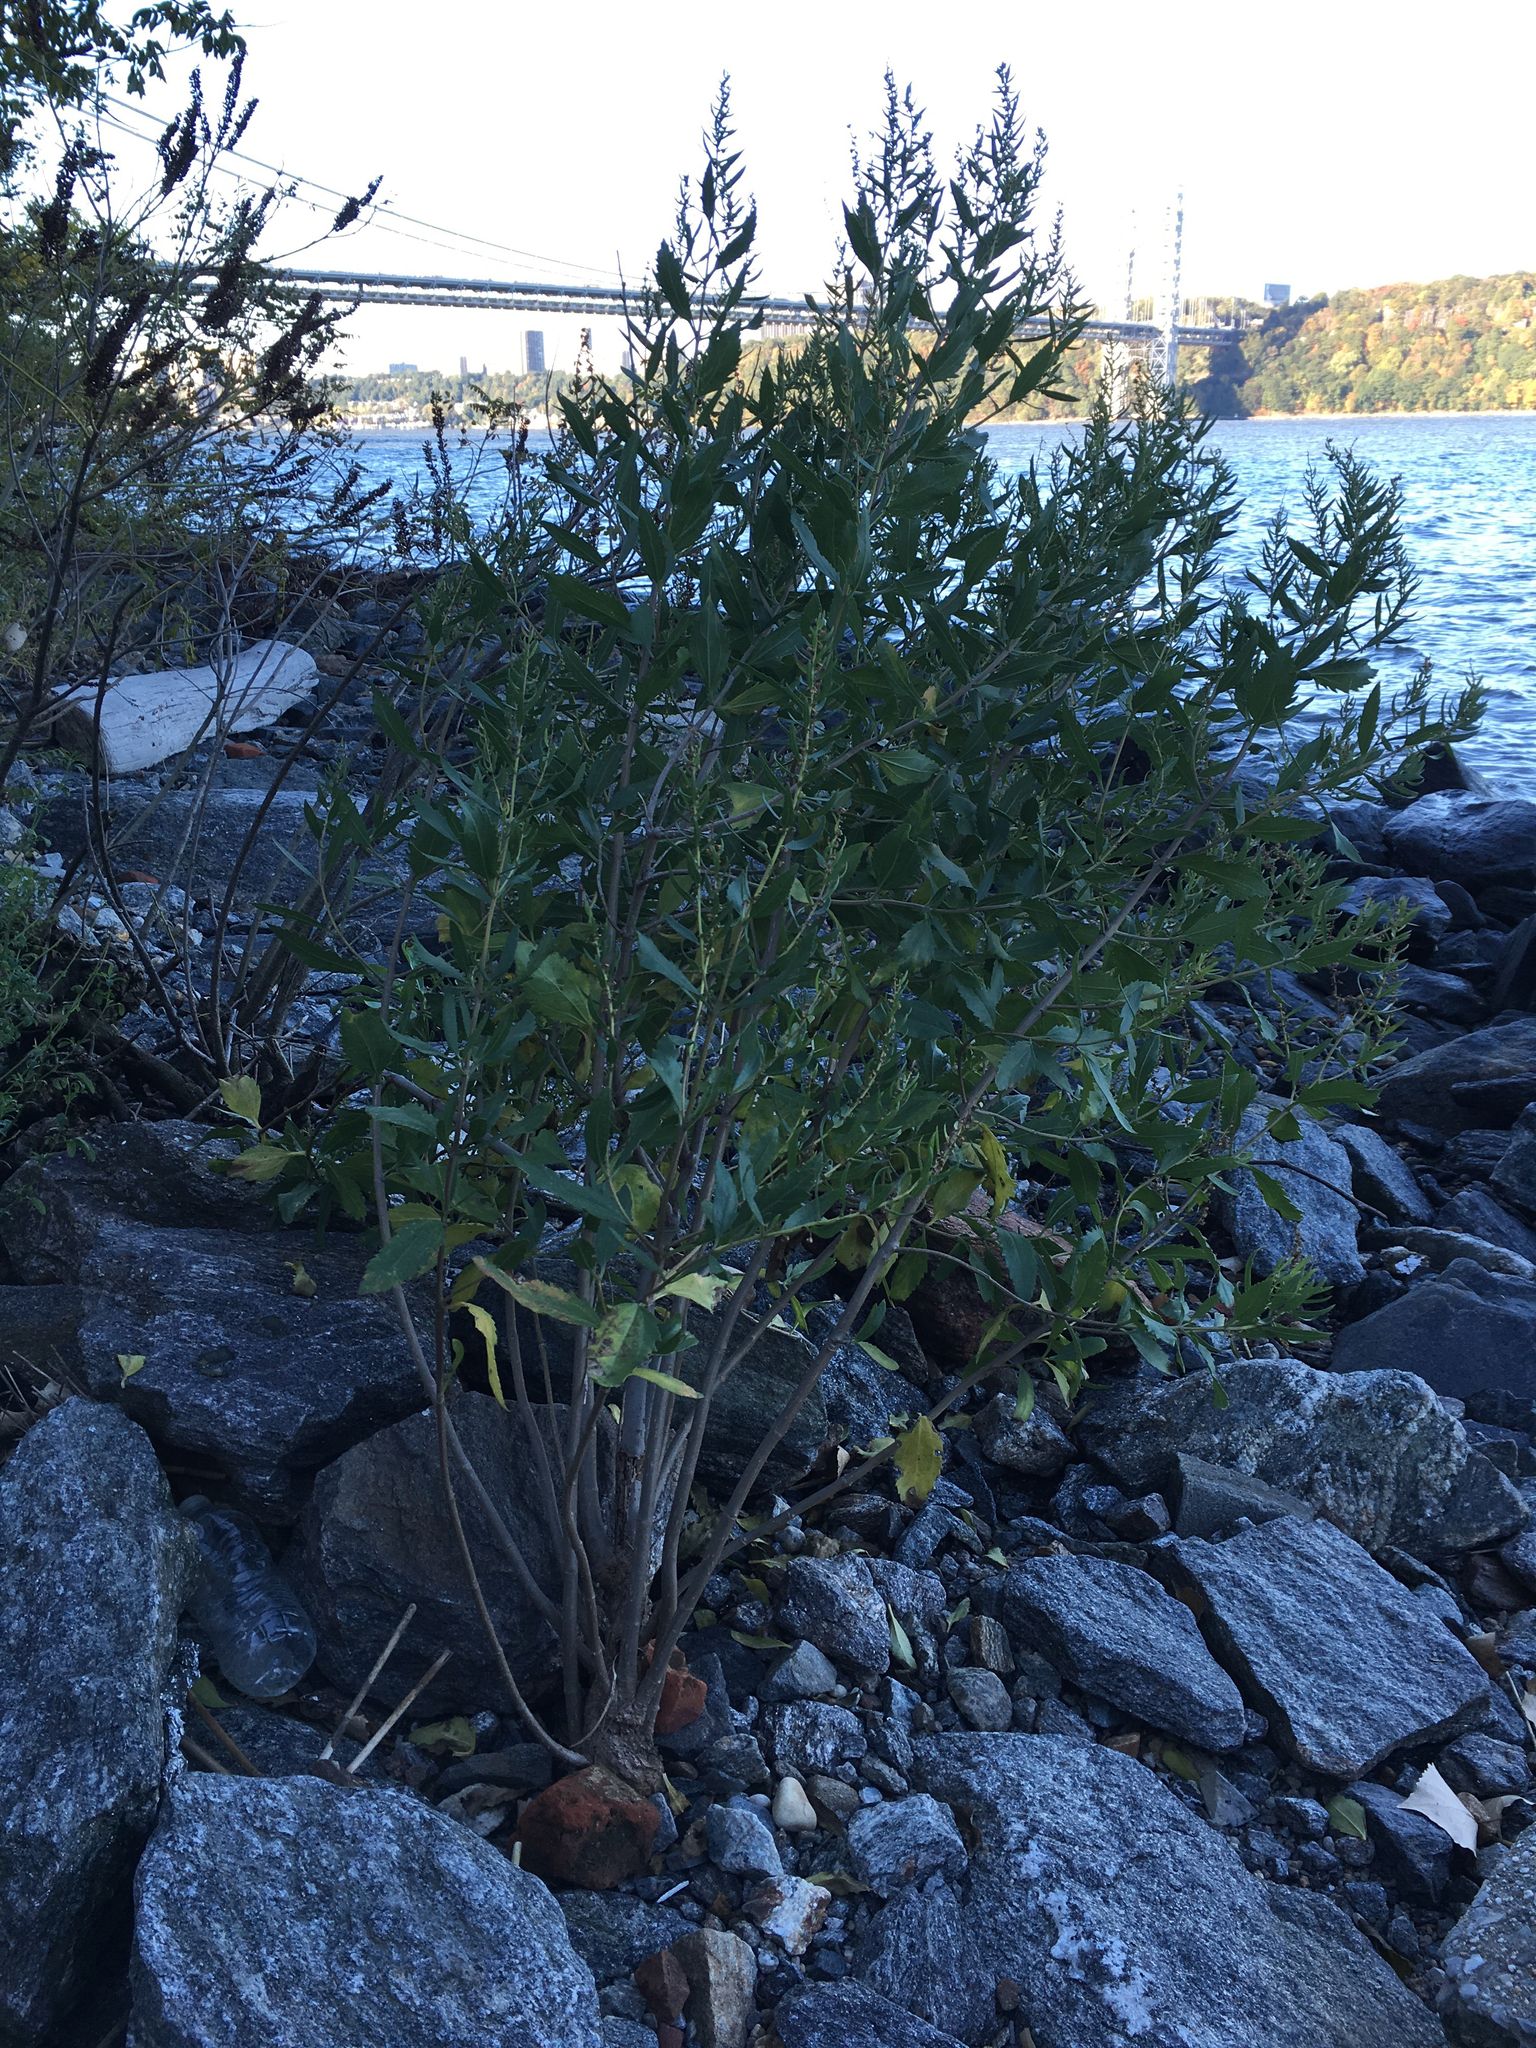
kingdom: Plantae
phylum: Tracheophyta
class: Magnoliopsida
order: Asterales
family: Asteraceae
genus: Iva
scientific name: Iva frutescens
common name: Big-leaved marsh-elder
